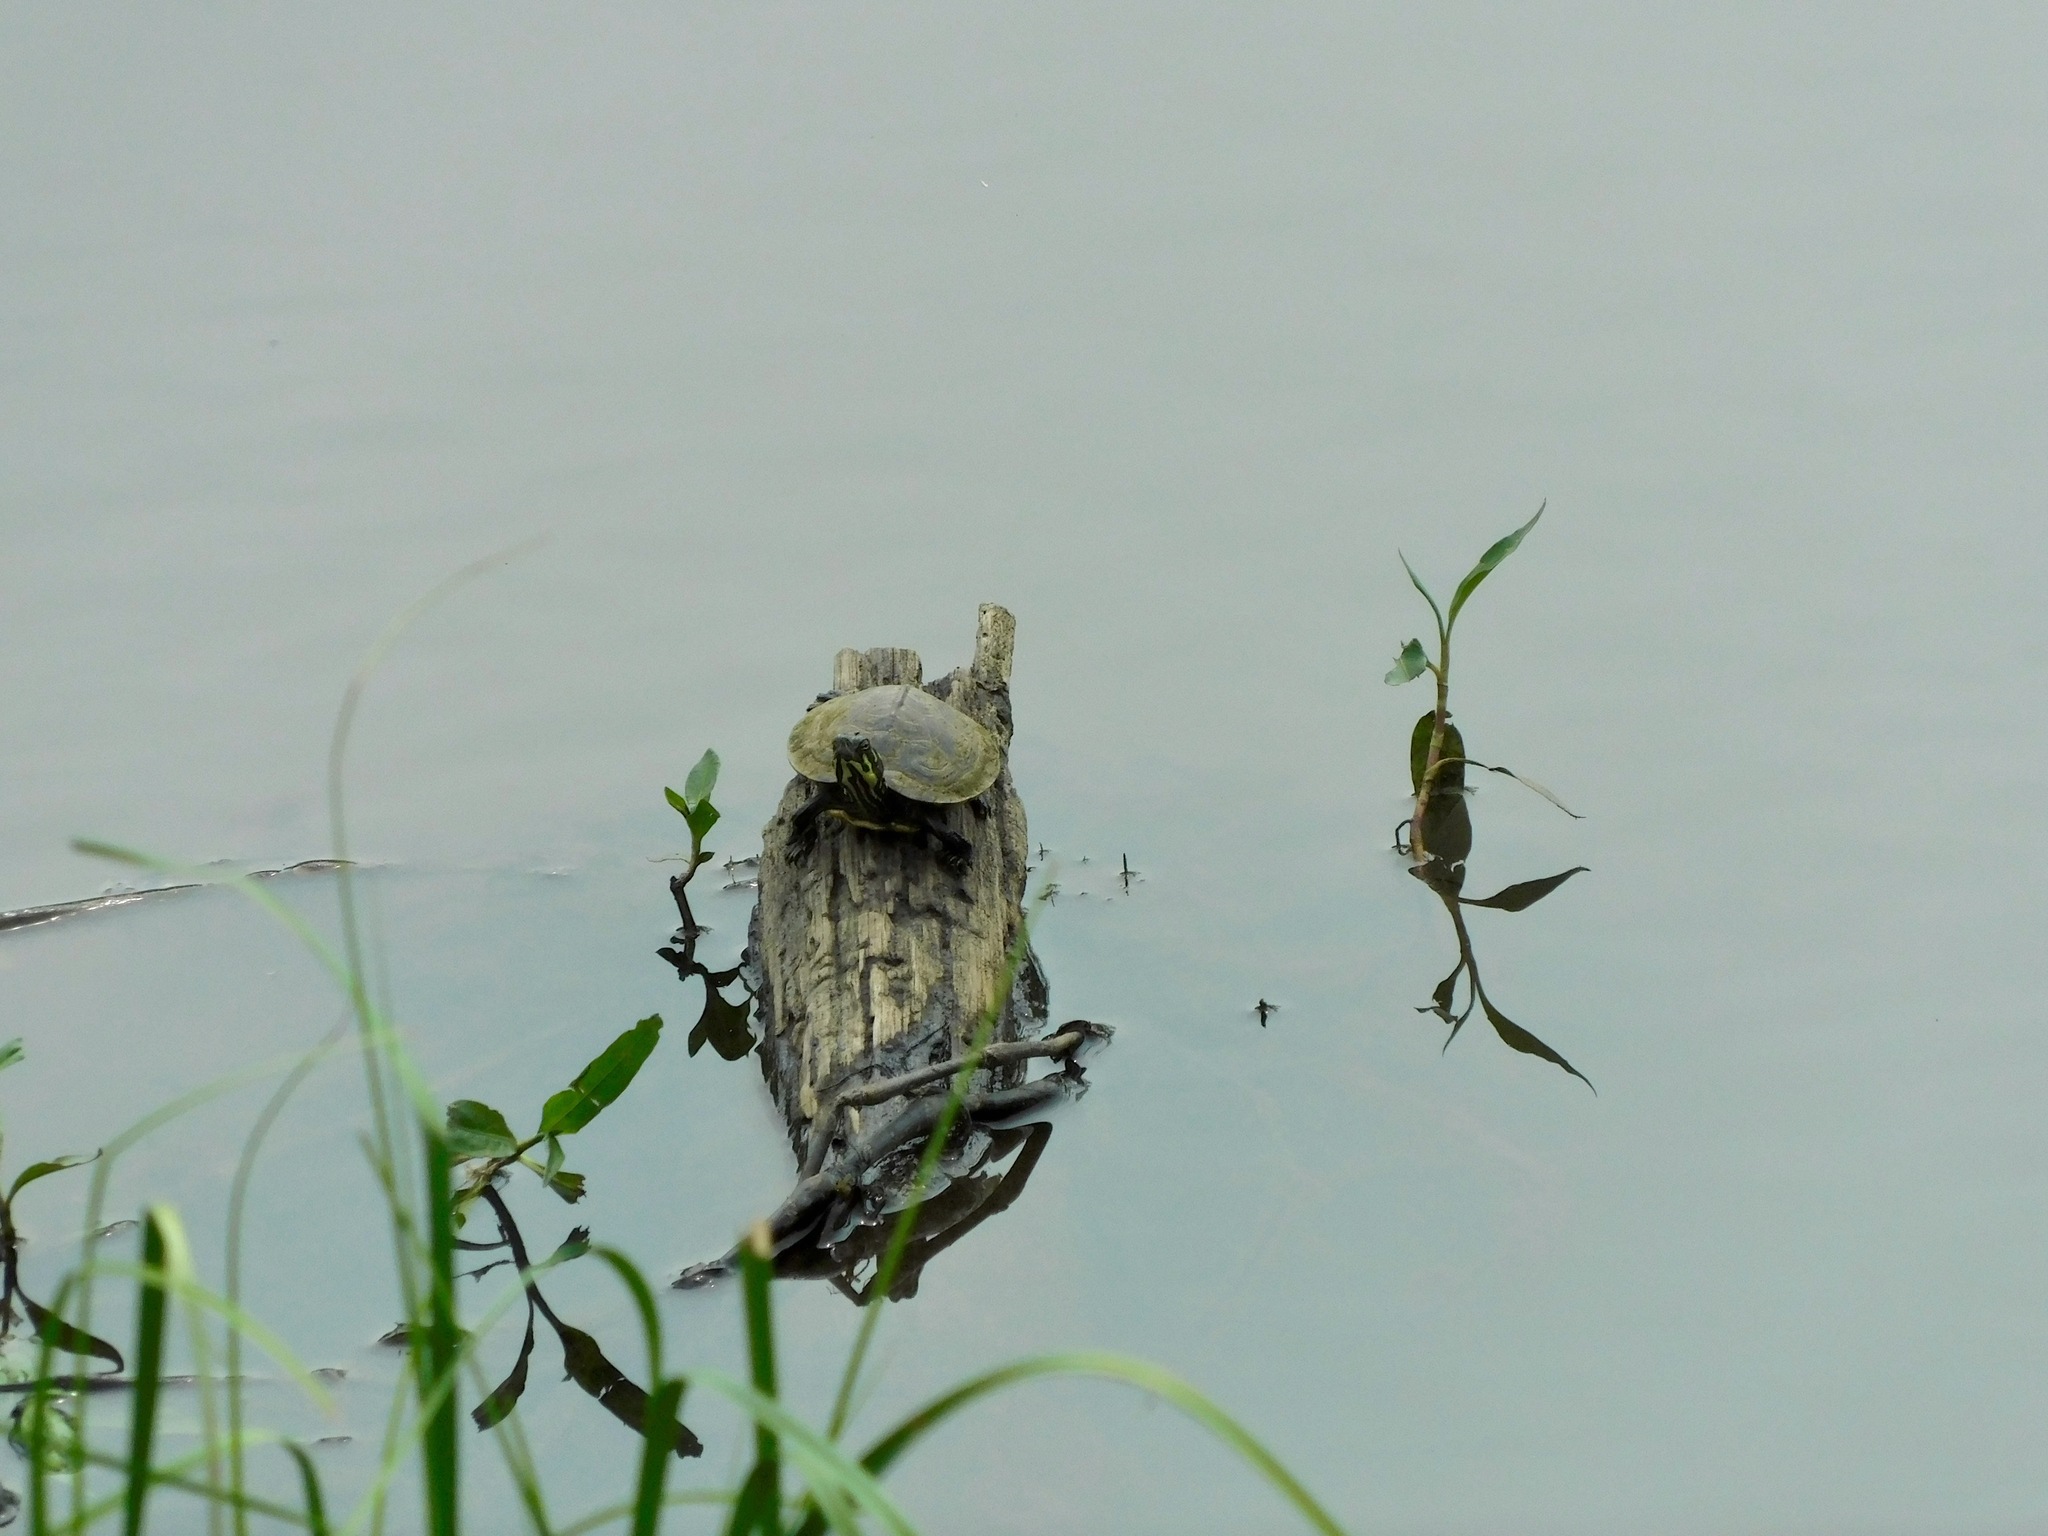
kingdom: Animalia
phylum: Chordata
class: Testudines
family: Emydidae
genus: Pseudemys
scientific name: Pseudemys concinna
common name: Eastern river cooter
